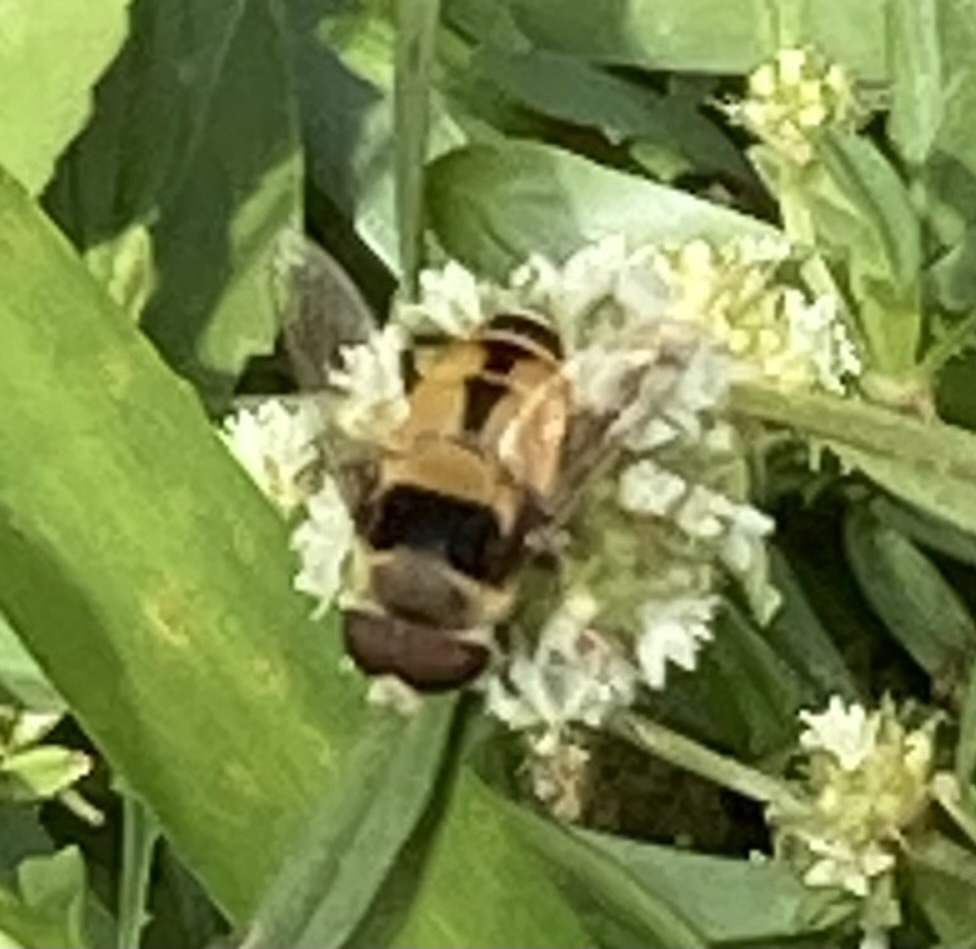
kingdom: Animalia
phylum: Arthropoda
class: Insecta
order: Diptera
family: Syrphidae
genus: Palpada
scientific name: Palpada pusilla
